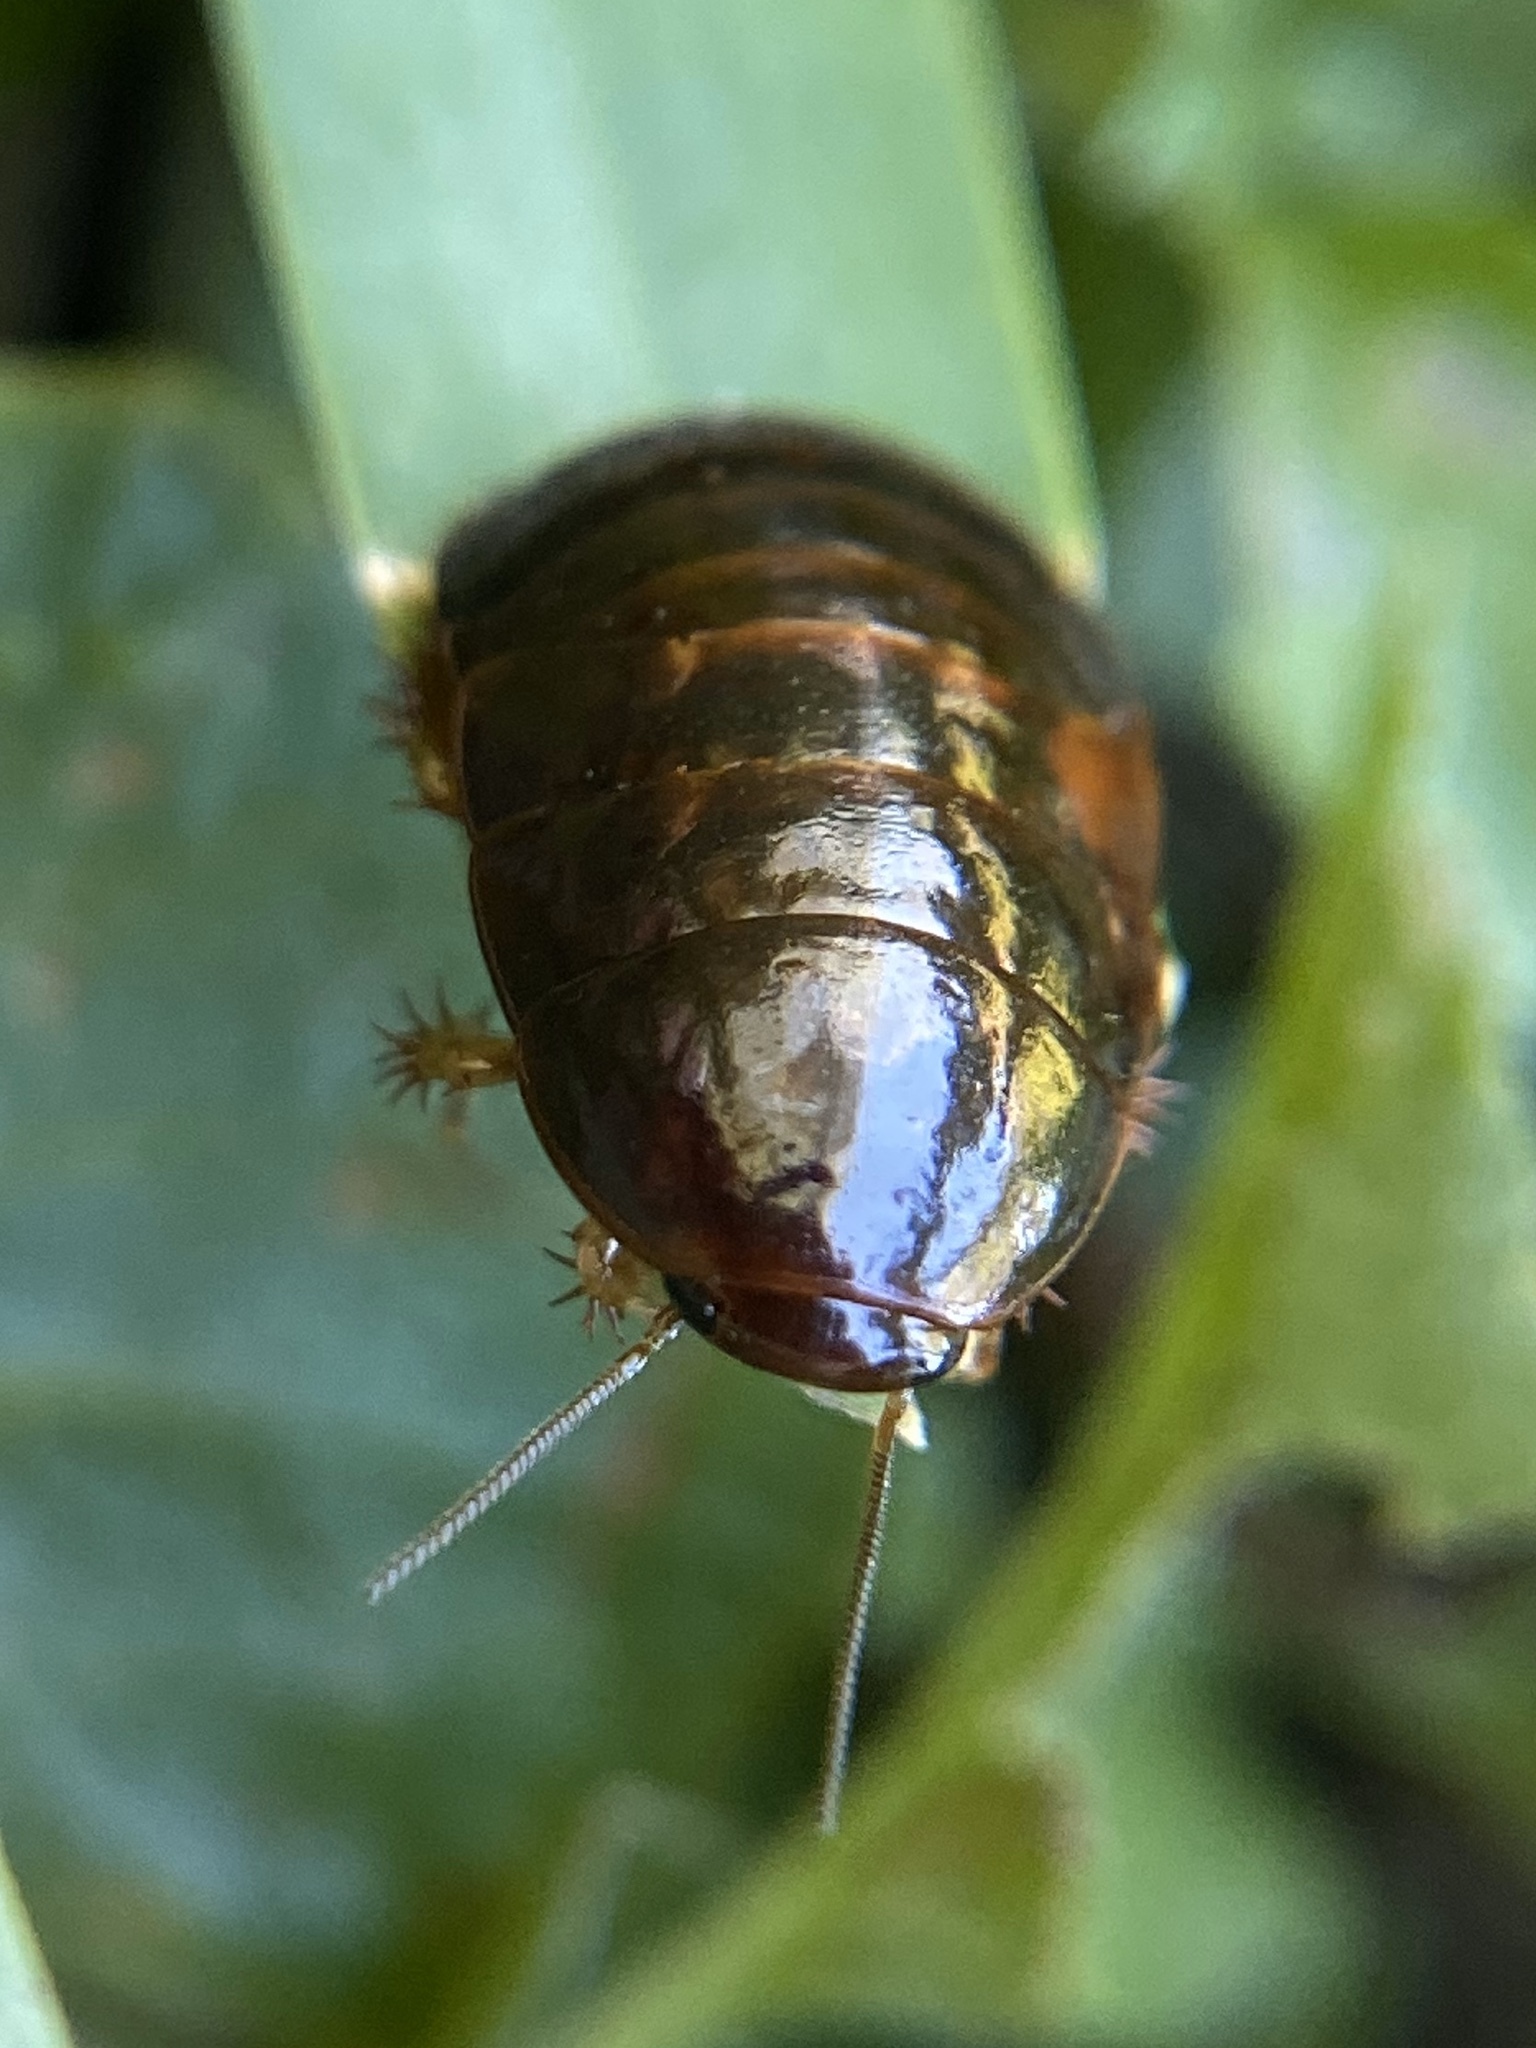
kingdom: Animalia
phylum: Arthropoda
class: Insecta
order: Blattodea
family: Blaberidae
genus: Pycnoscelus
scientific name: Pycnoscelus surinamensis
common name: Surinam cockroach
